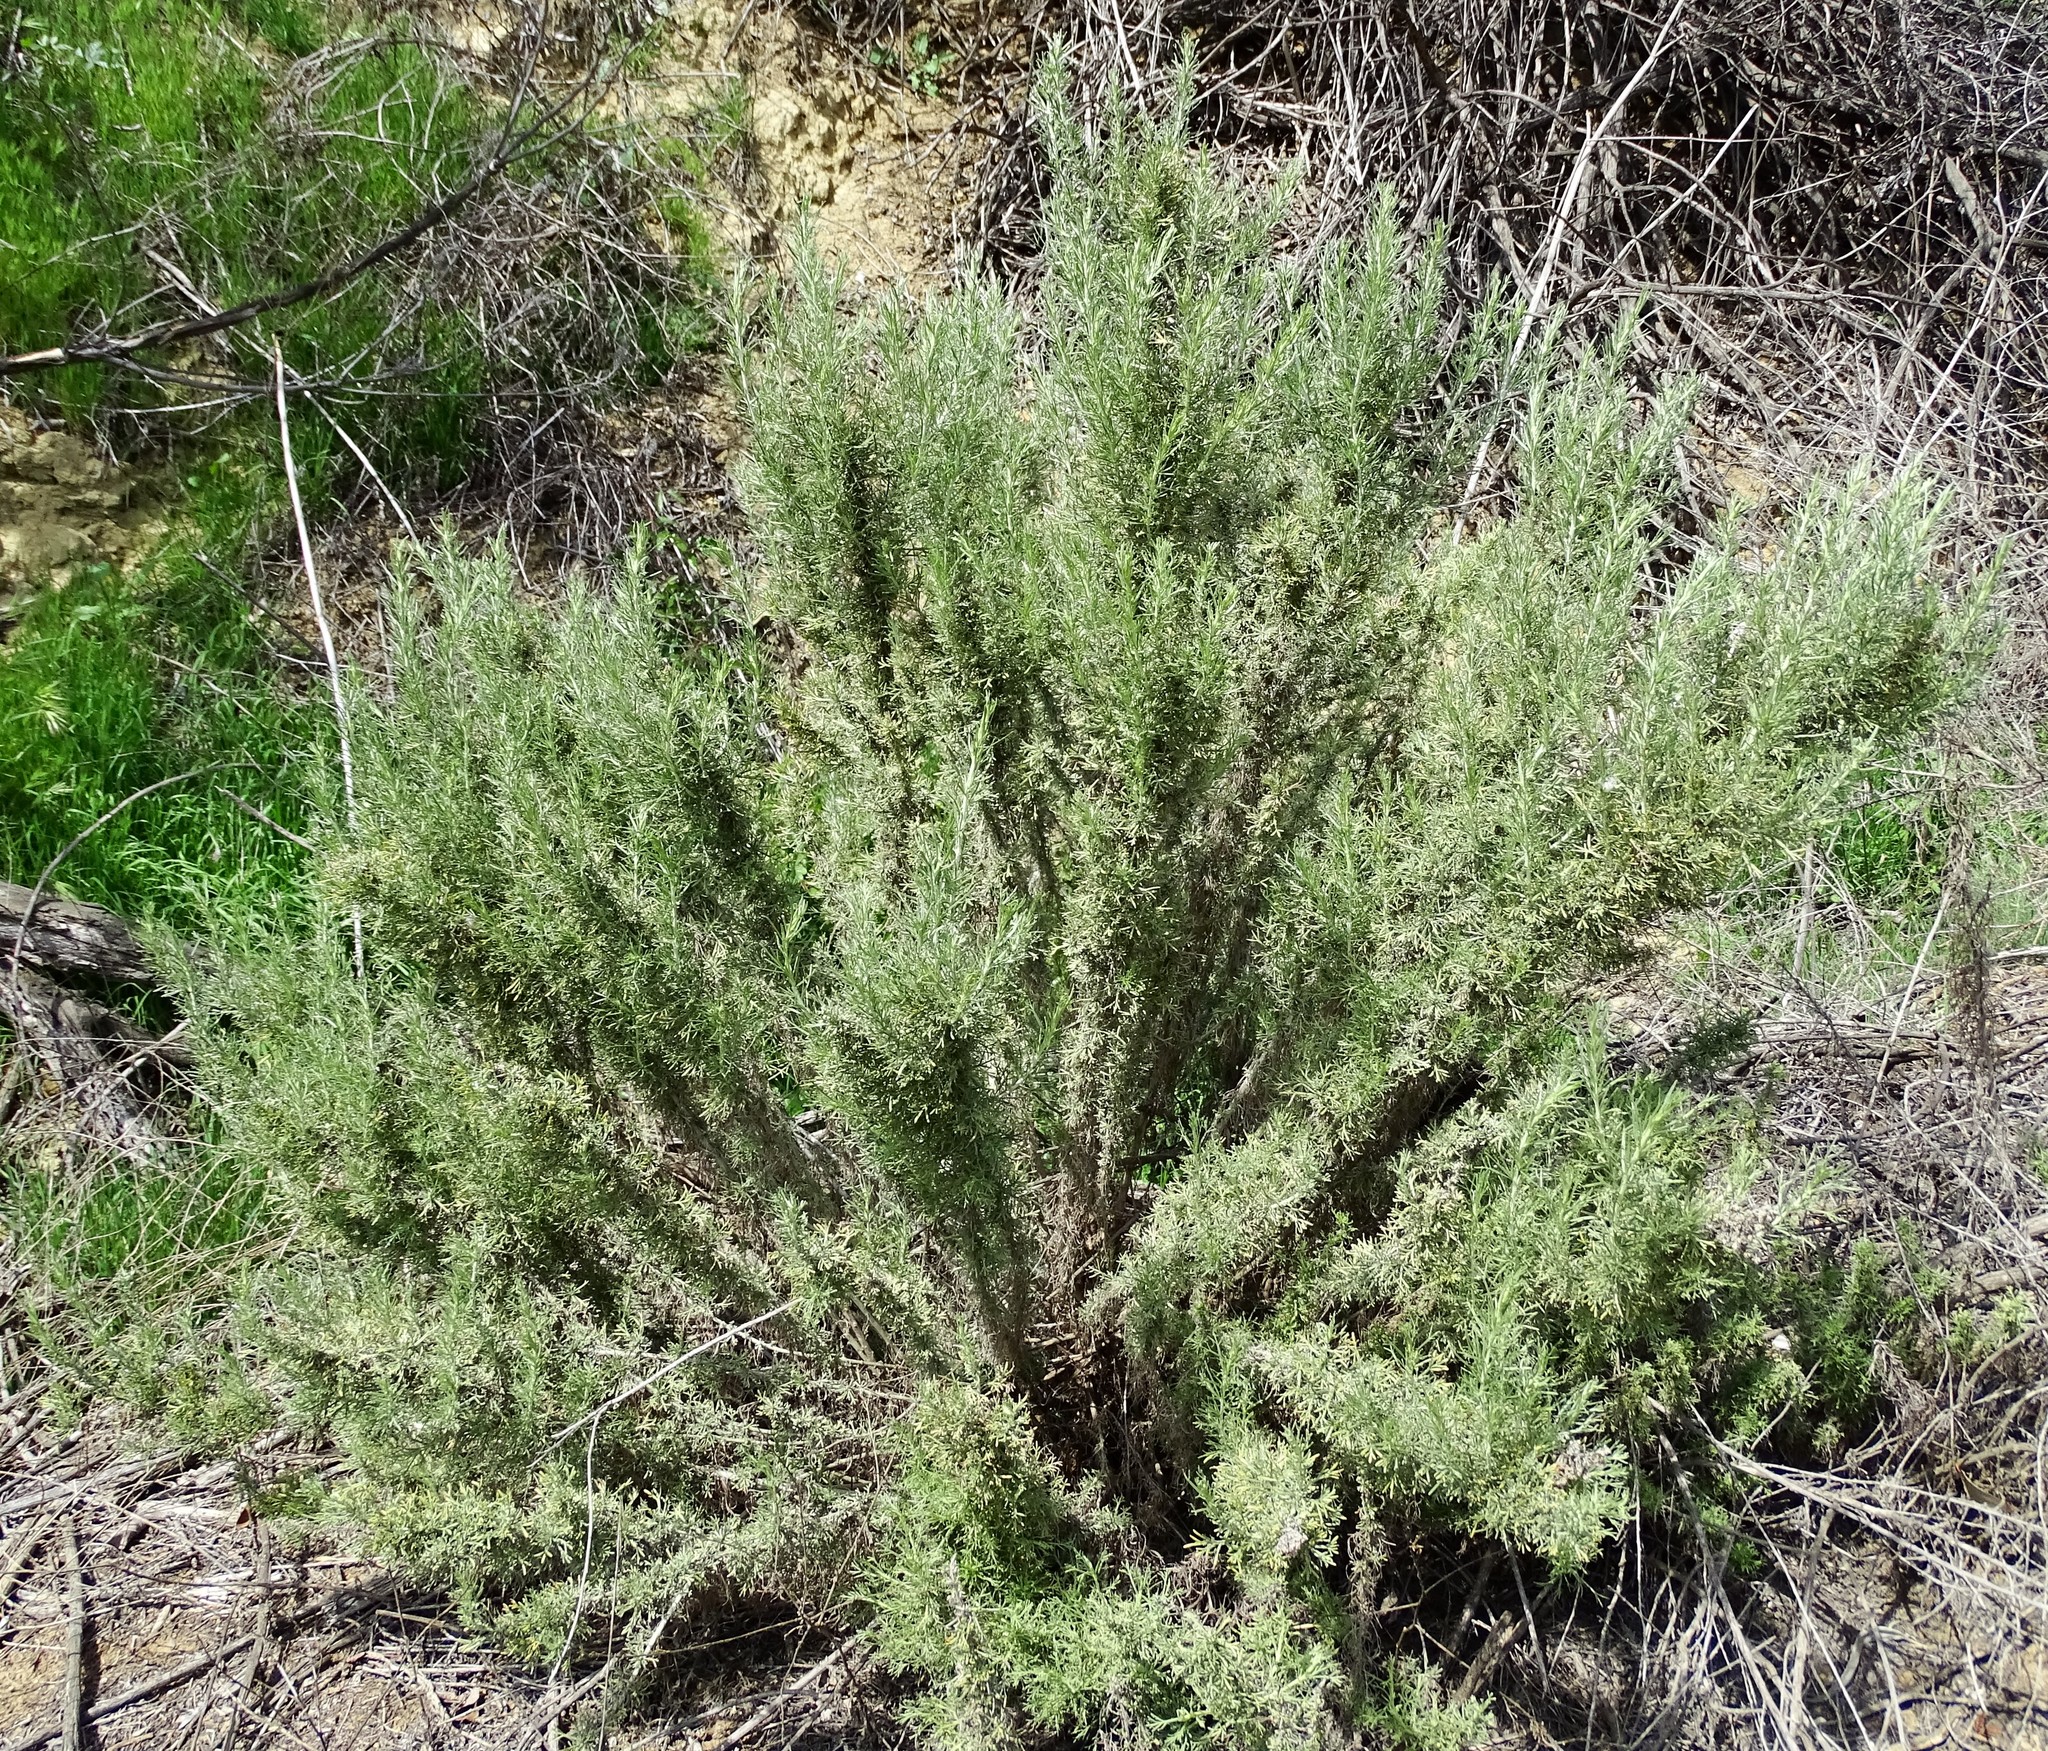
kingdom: Plantae
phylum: Tracheophyta
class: Magnoliopsida
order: Asterales
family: Asteraceae
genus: Artemisia
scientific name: Artemisia californica
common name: California sagebrush
